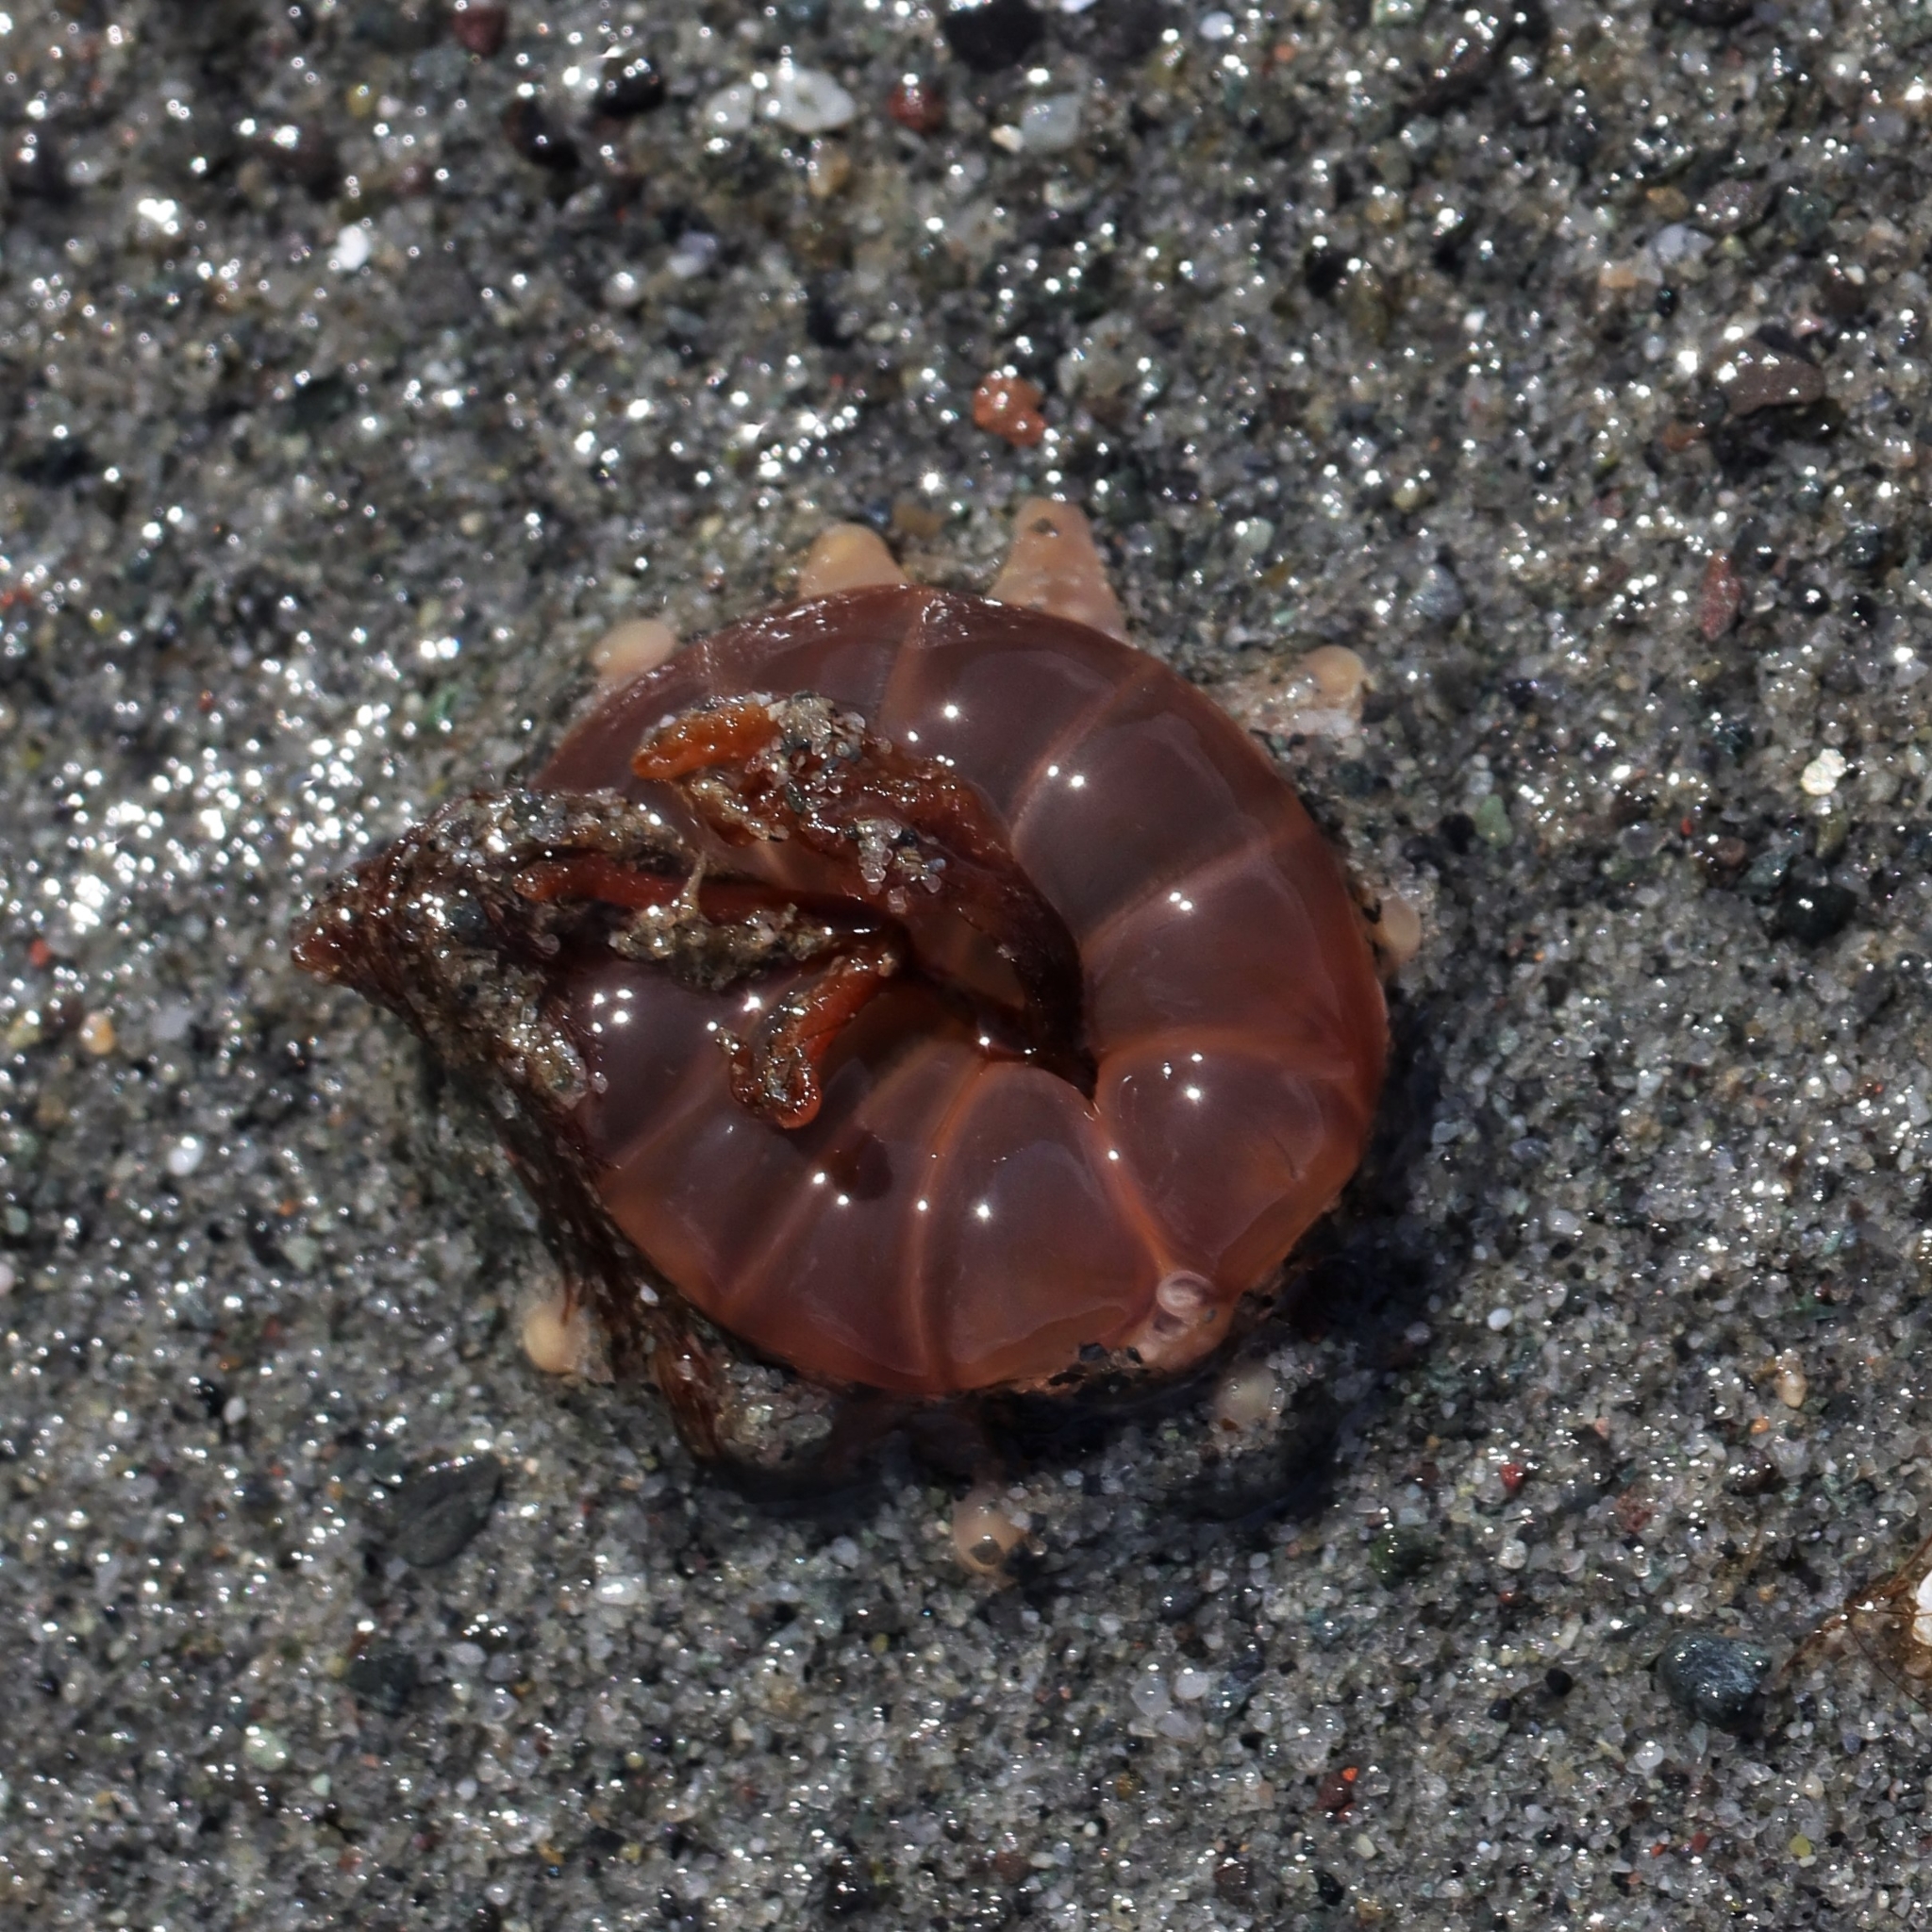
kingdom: Animalia
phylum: Cnidaria
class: Anthozoa
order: Actiniaria
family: Peachiidae
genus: Peachia
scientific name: Peachia quinquecapitata
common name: Twelve-tentacled parasitic anemone
